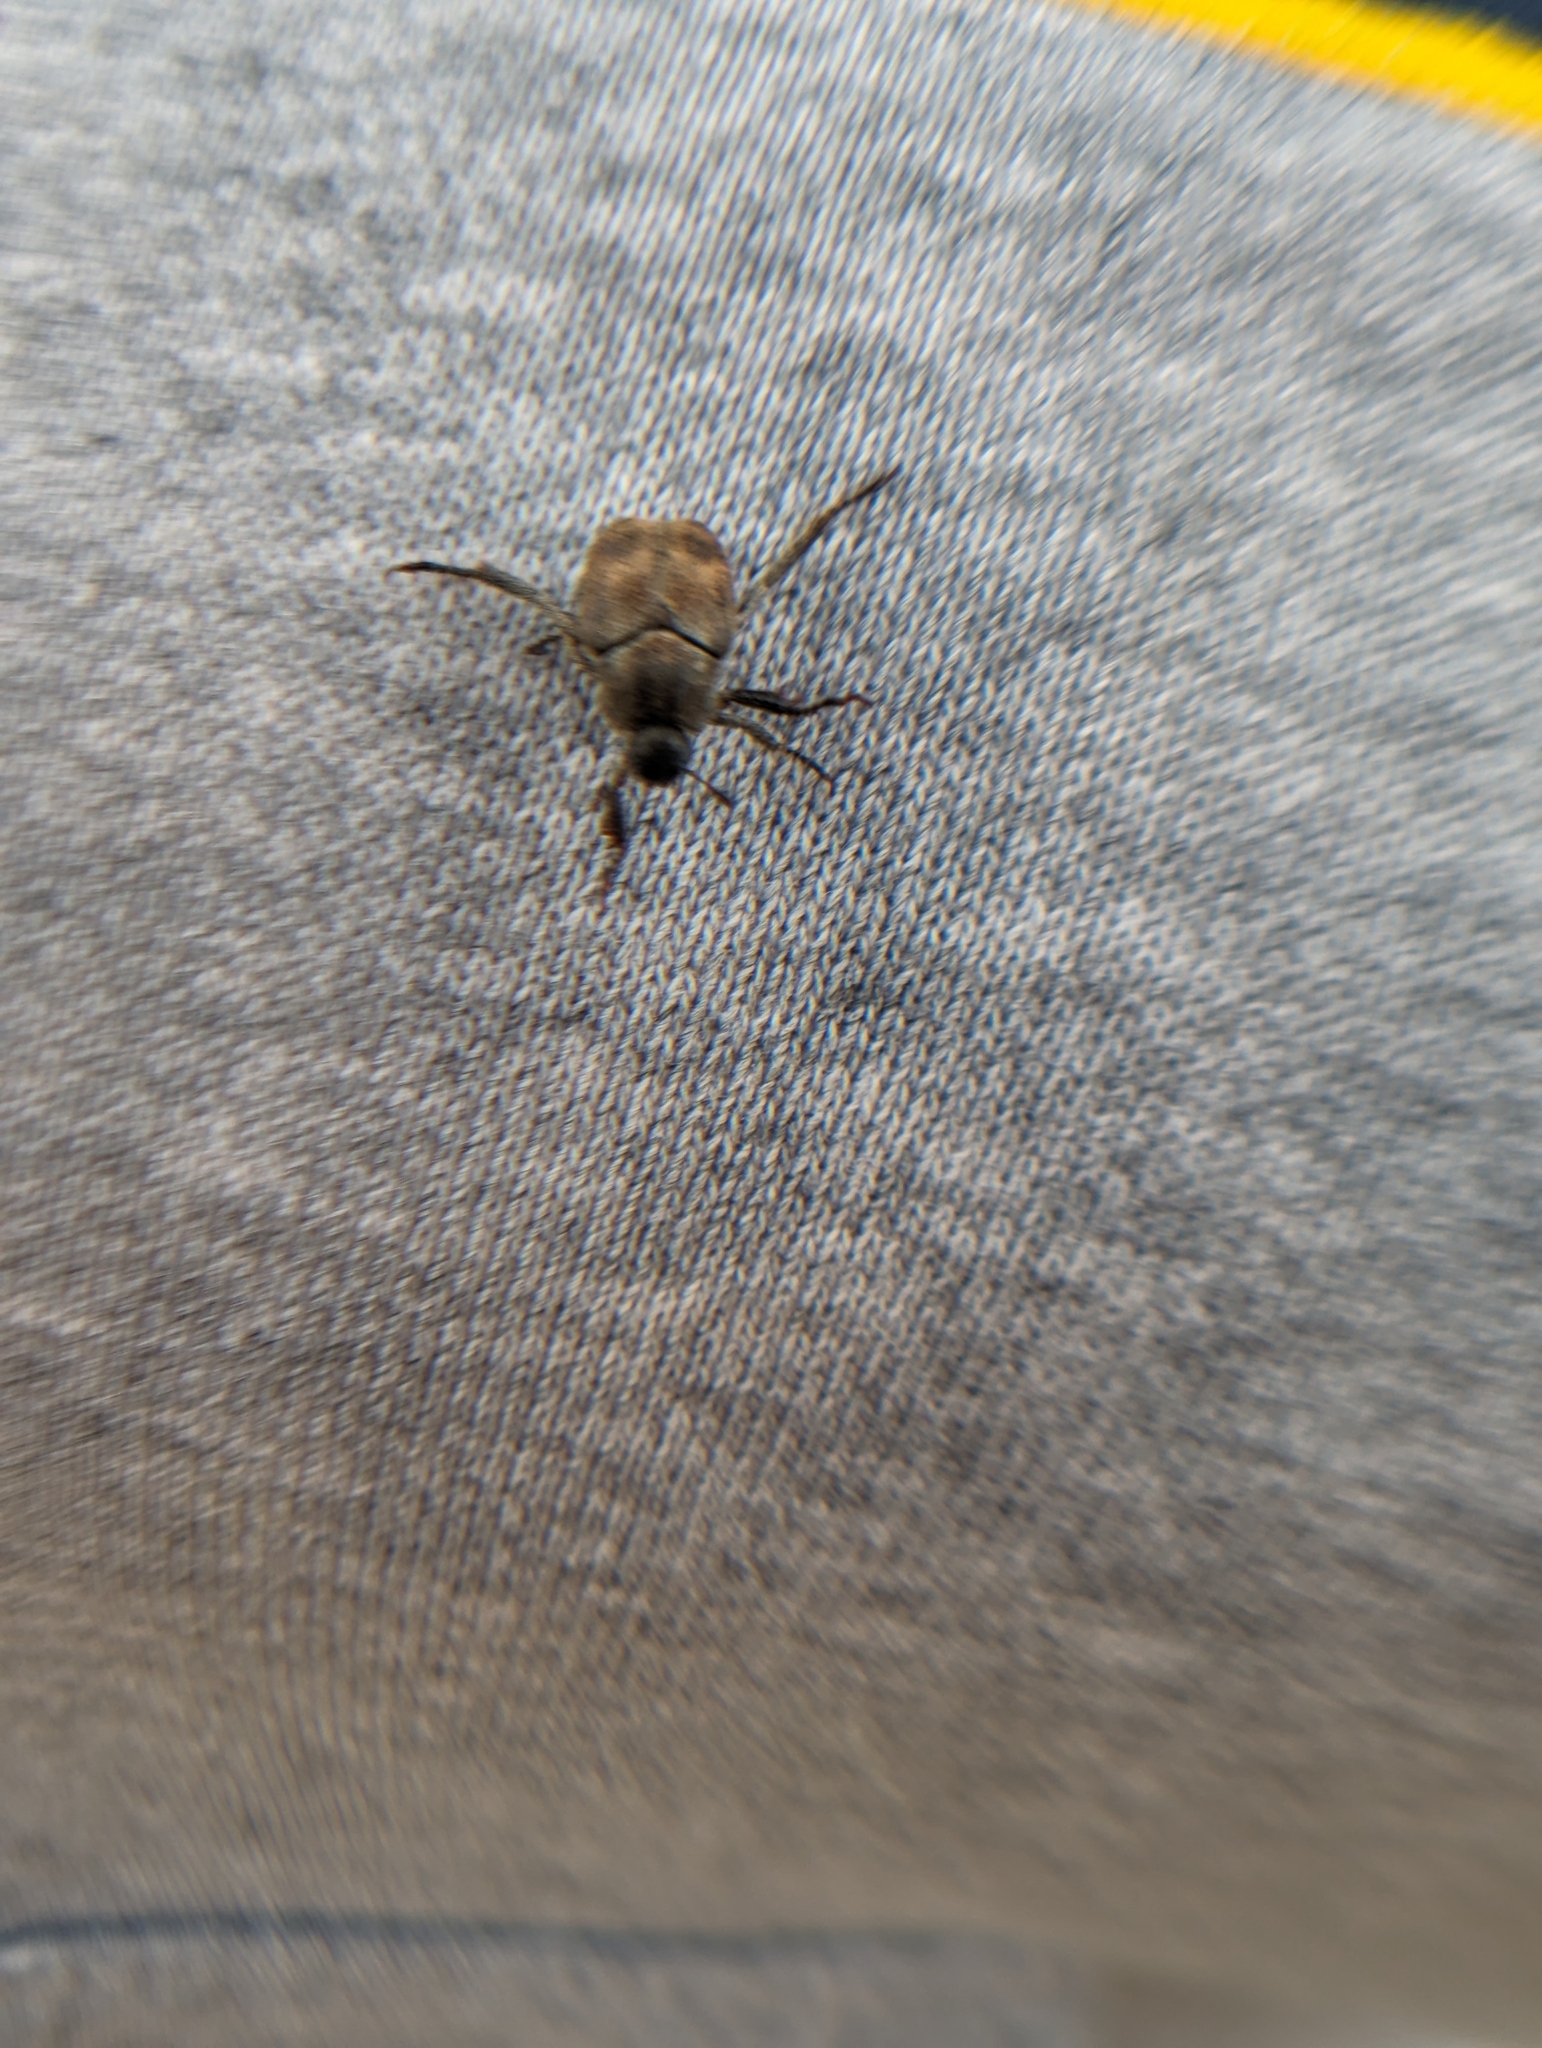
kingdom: Animalia
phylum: Arthropoda
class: Insecta
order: Coleoptera
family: Scarabaeidae
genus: Hoplia
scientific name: Hoplia trifasciata
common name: Three-lined hoplia
